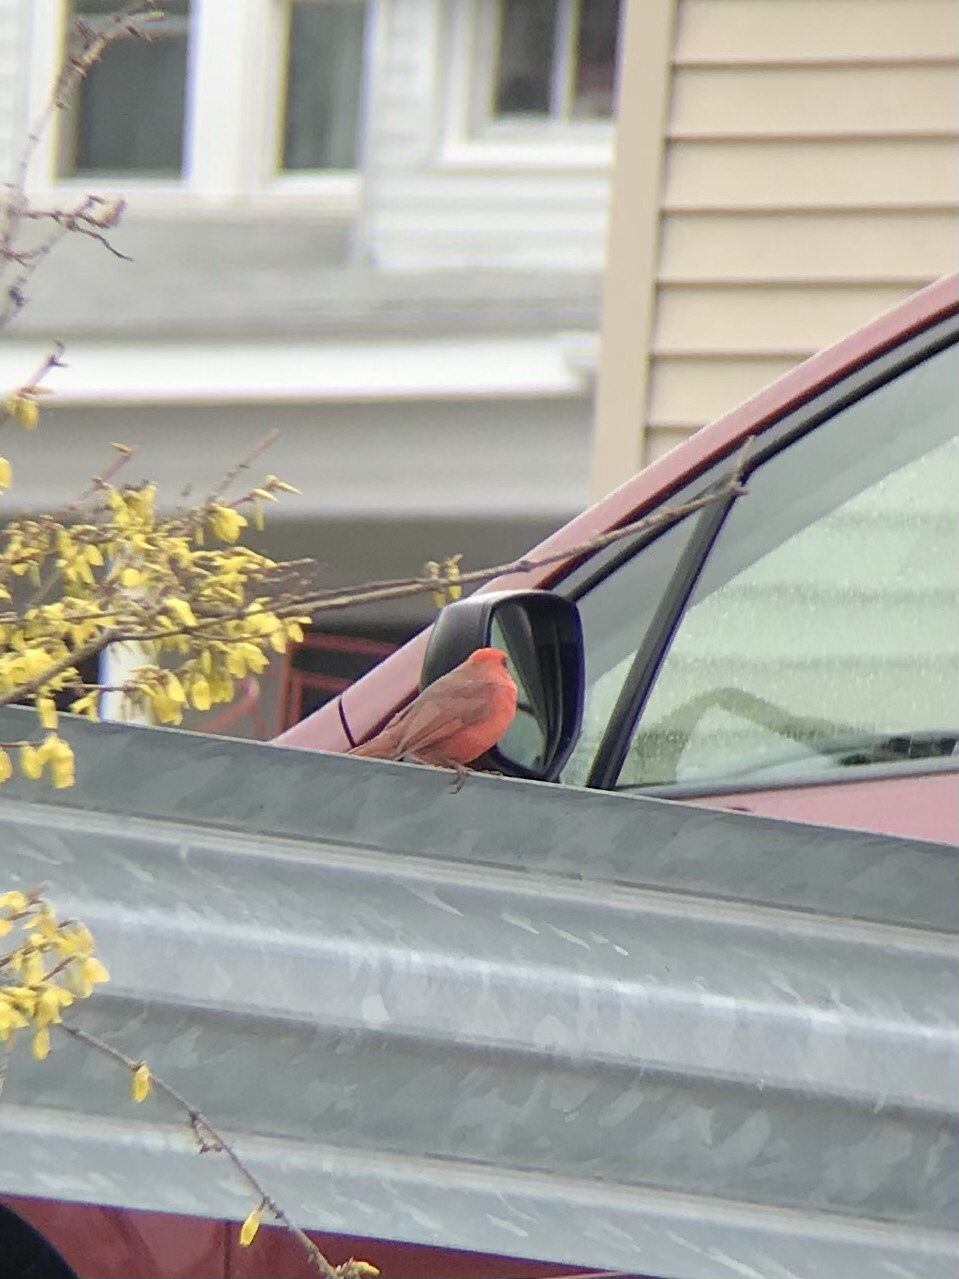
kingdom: Animalia
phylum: Chordata
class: Aves
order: Passeriformes
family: Cardinalidae
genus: Cardinalis
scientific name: Cardinalis cardinalis
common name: Northern cardinal
